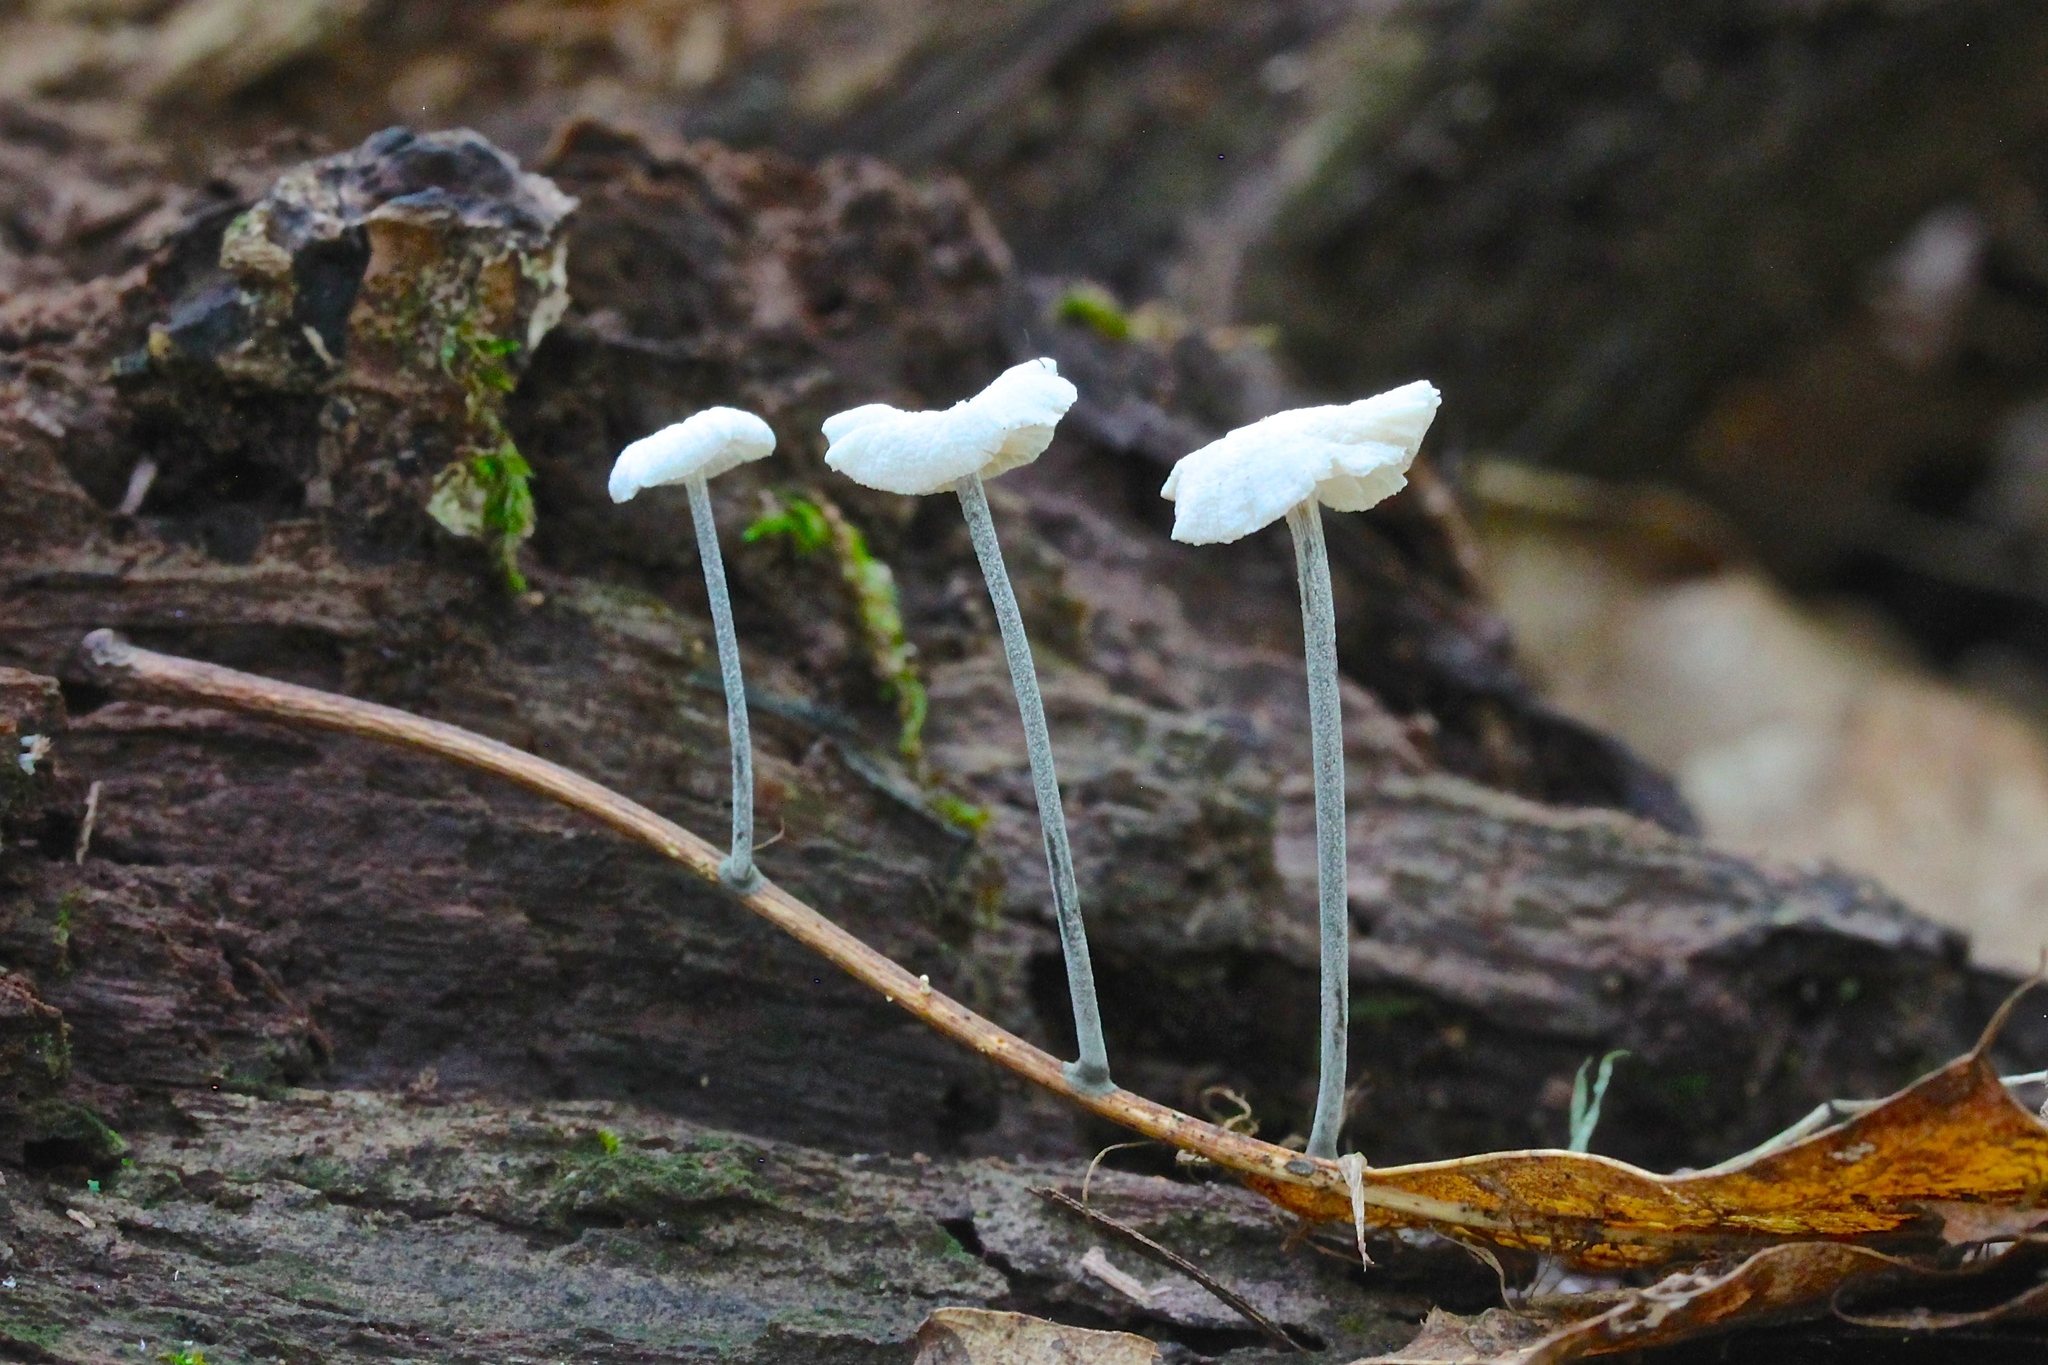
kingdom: Fungi
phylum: Basidiomycota
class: Agaricomycetes
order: Agaricales
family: Marasmiaceae
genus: Tetrapyrgos
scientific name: Tetrapyrgos nigripes
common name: Black-stalked marasmius
